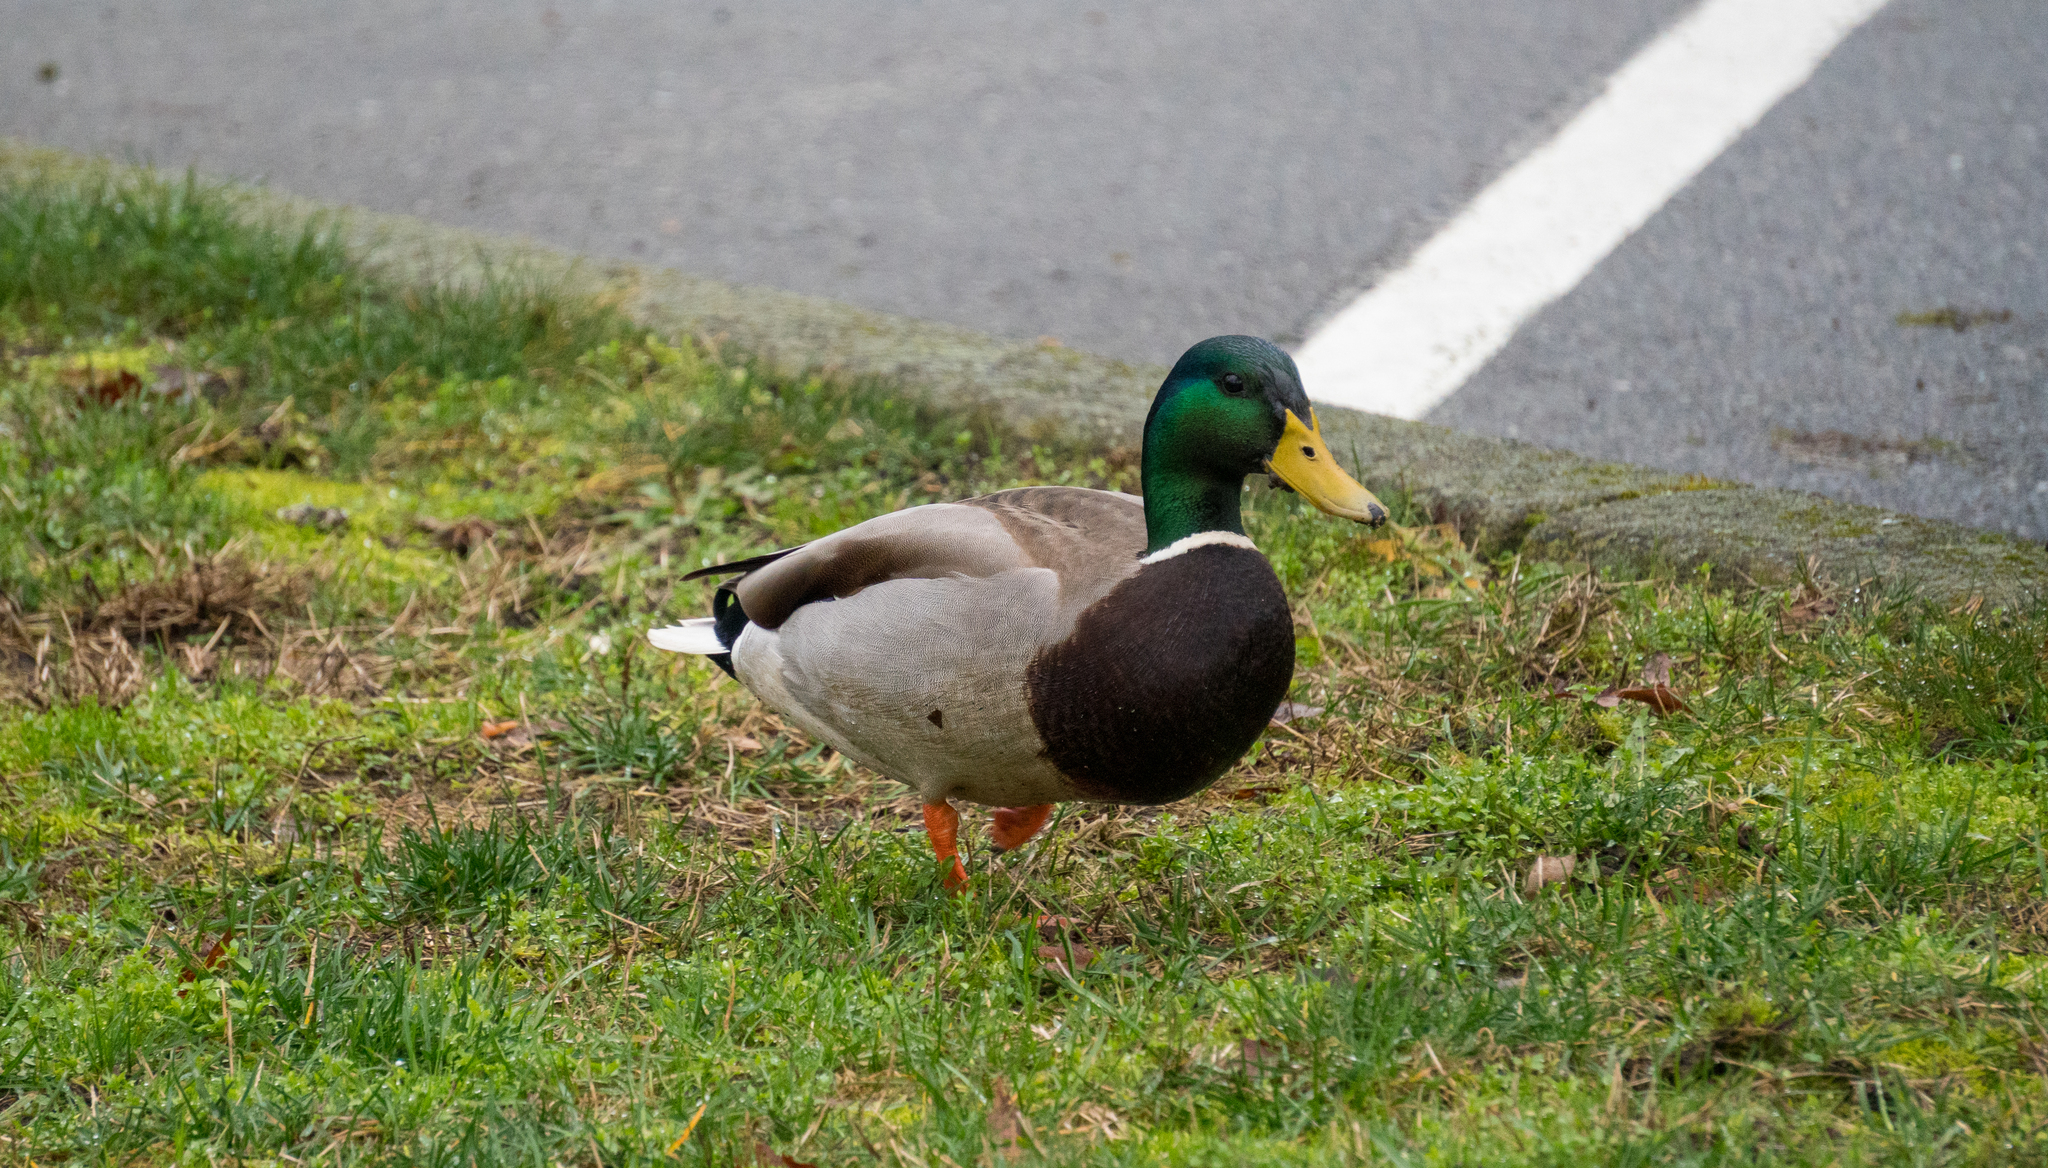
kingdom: Animalia
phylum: Chordata
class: Aves
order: Anseriformes
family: Anatidae
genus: Anas
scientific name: Anas platyrhynchos
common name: Mallard
